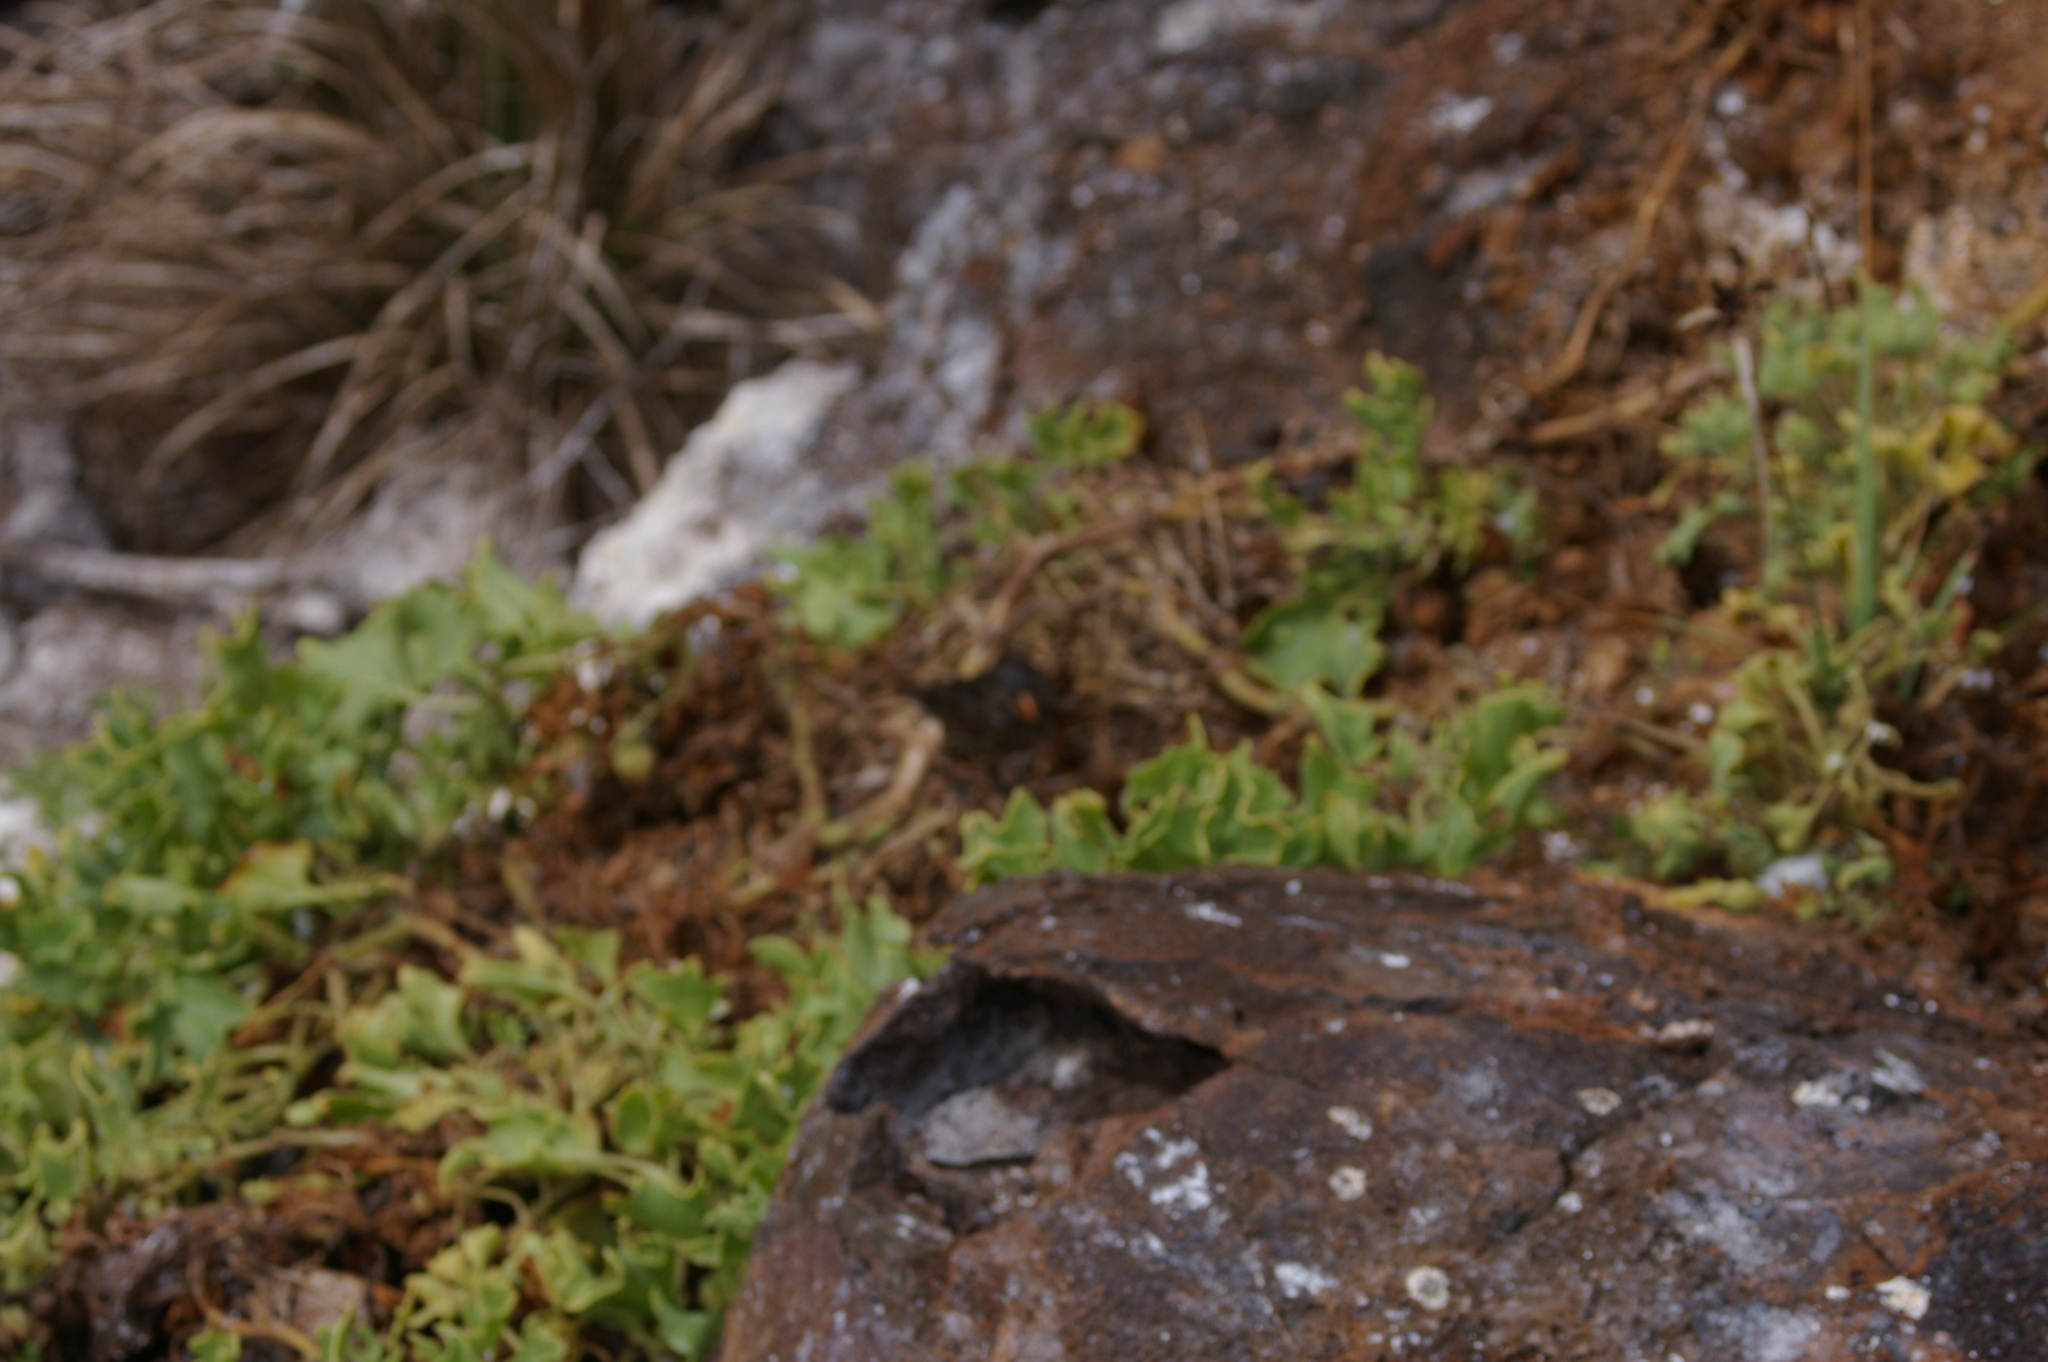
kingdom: Animalia
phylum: Chordata
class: Aves
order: Passeriformes
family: Thraupidae
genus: Geospiza
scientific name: Geospiza
